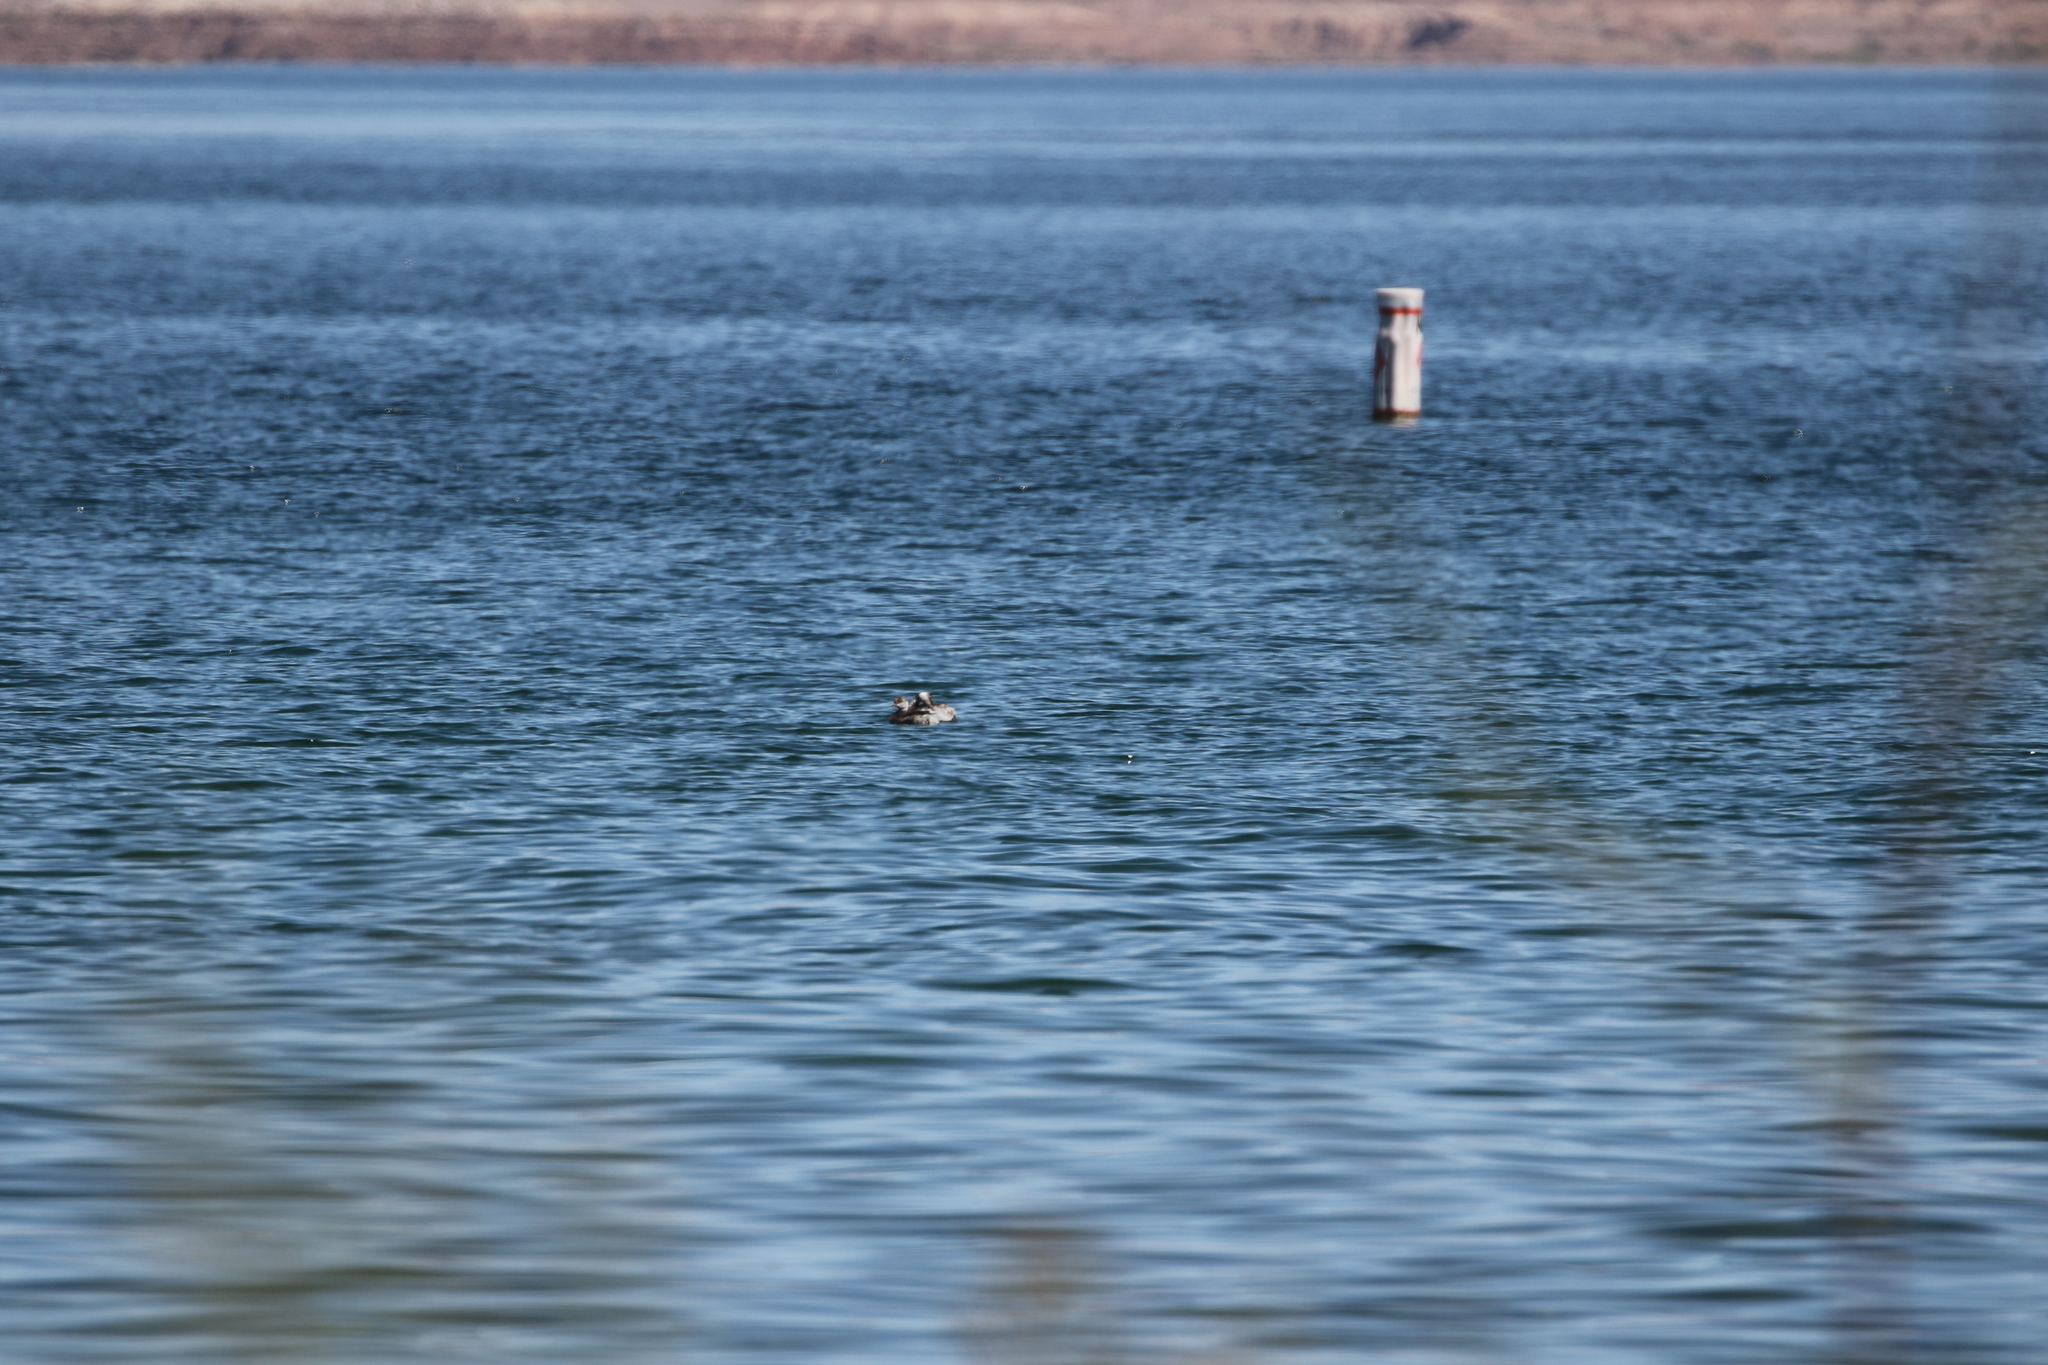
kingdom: Animalia
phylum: Chordata
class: Aves
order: Podicipediformes
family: Podicipedidae
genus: Podiceps
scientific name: Podiceps auritus
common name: Horned grebe
